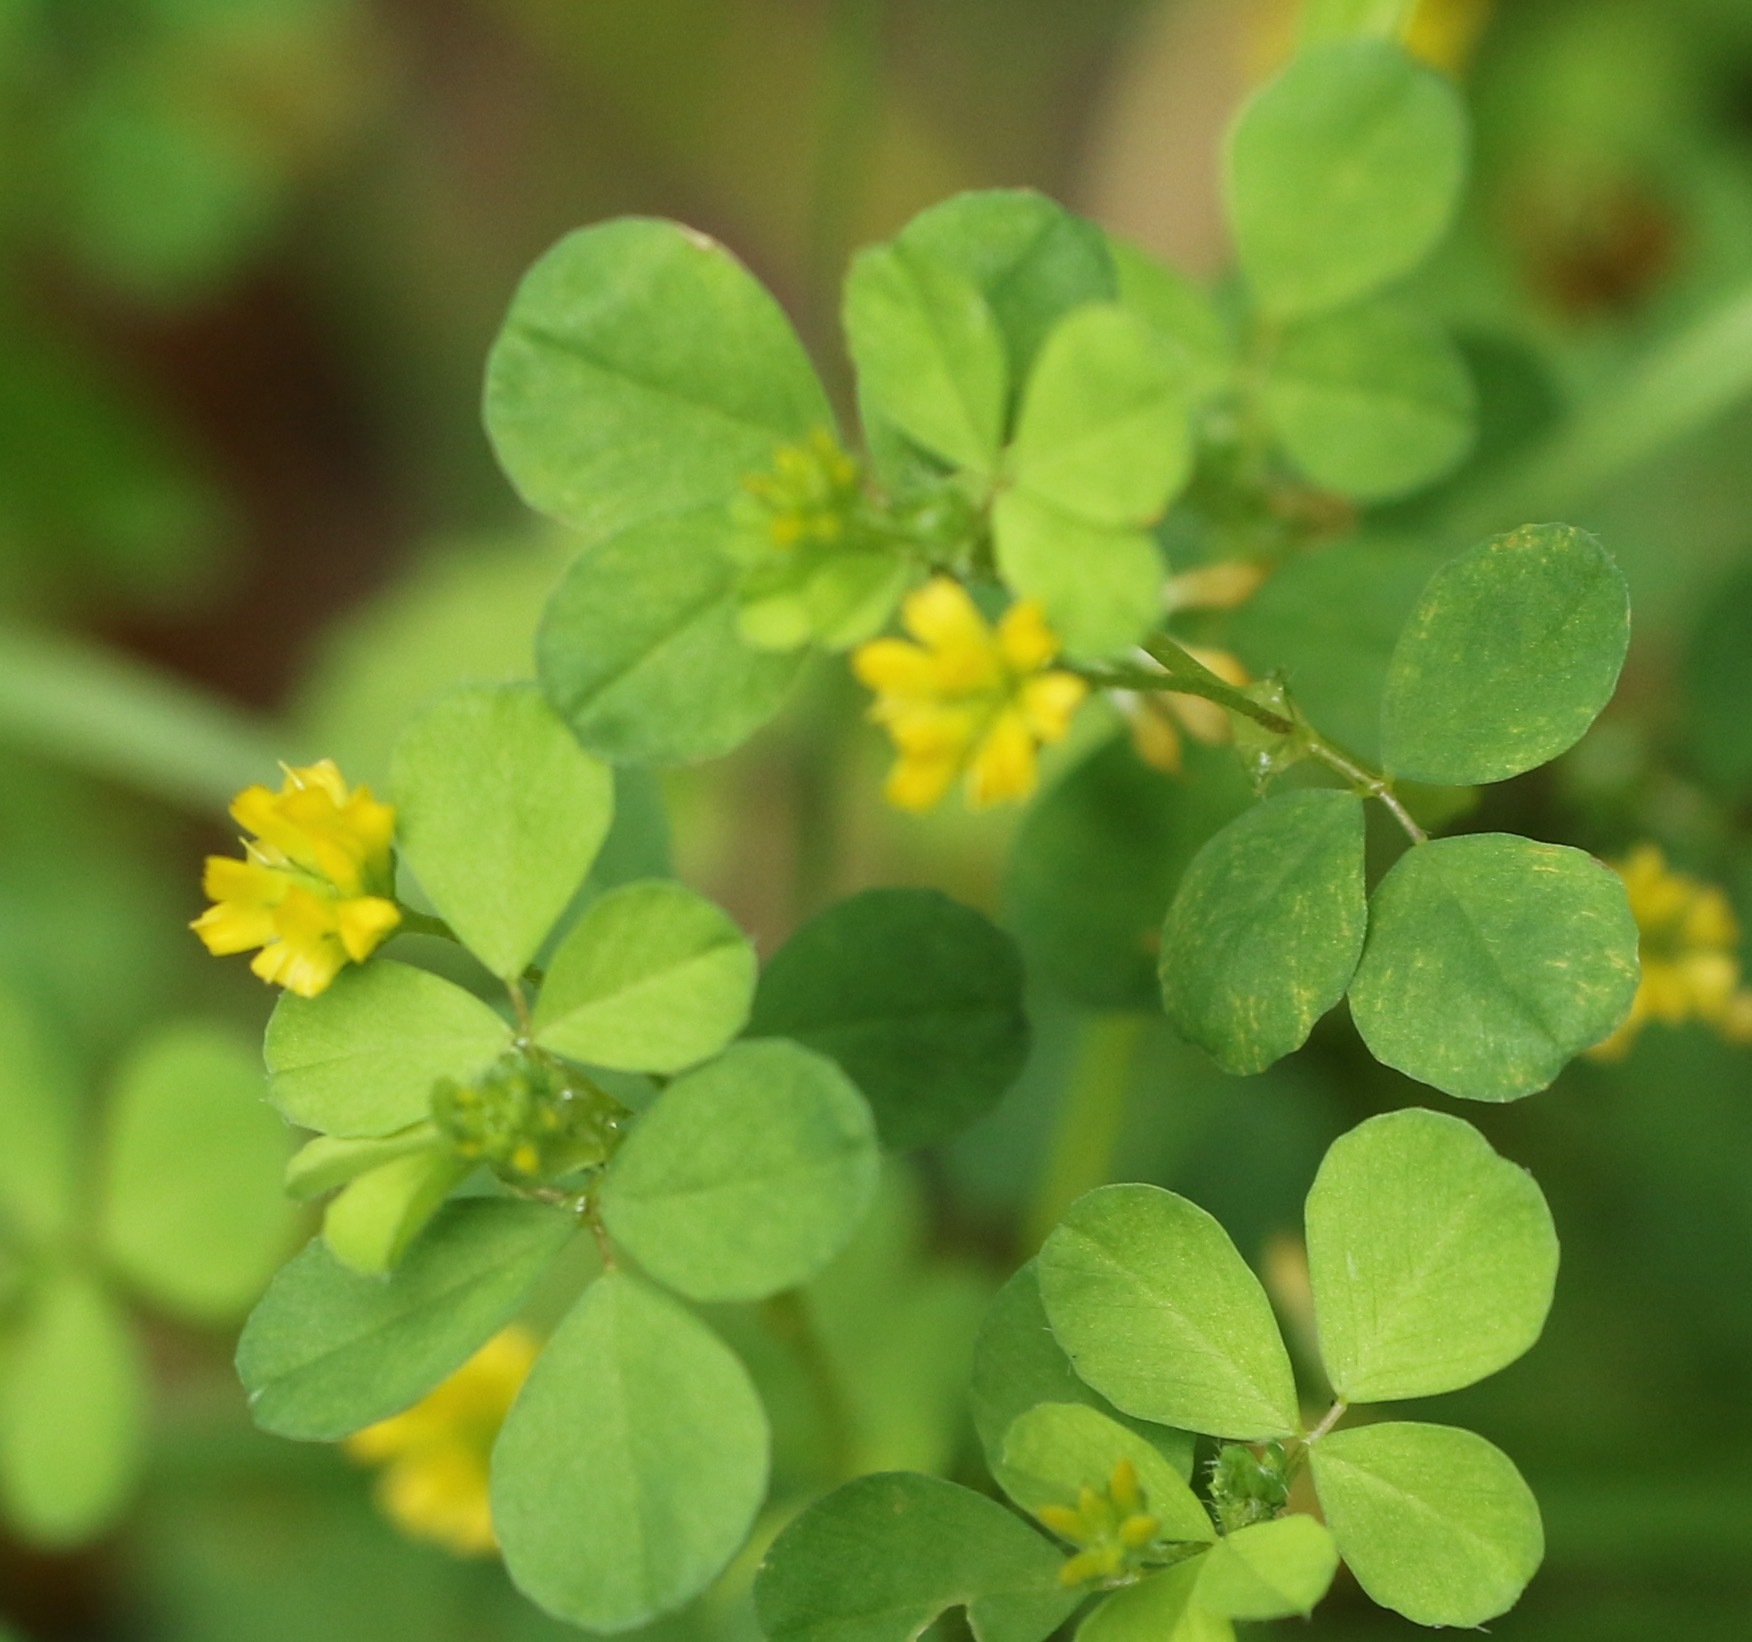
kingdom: Plantae
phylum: Tracheophyta
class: Magnoliopsida
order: Fabales
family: Fabaceae
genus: Trifolium
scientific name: Trifolium dubium
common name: Suckling clover
